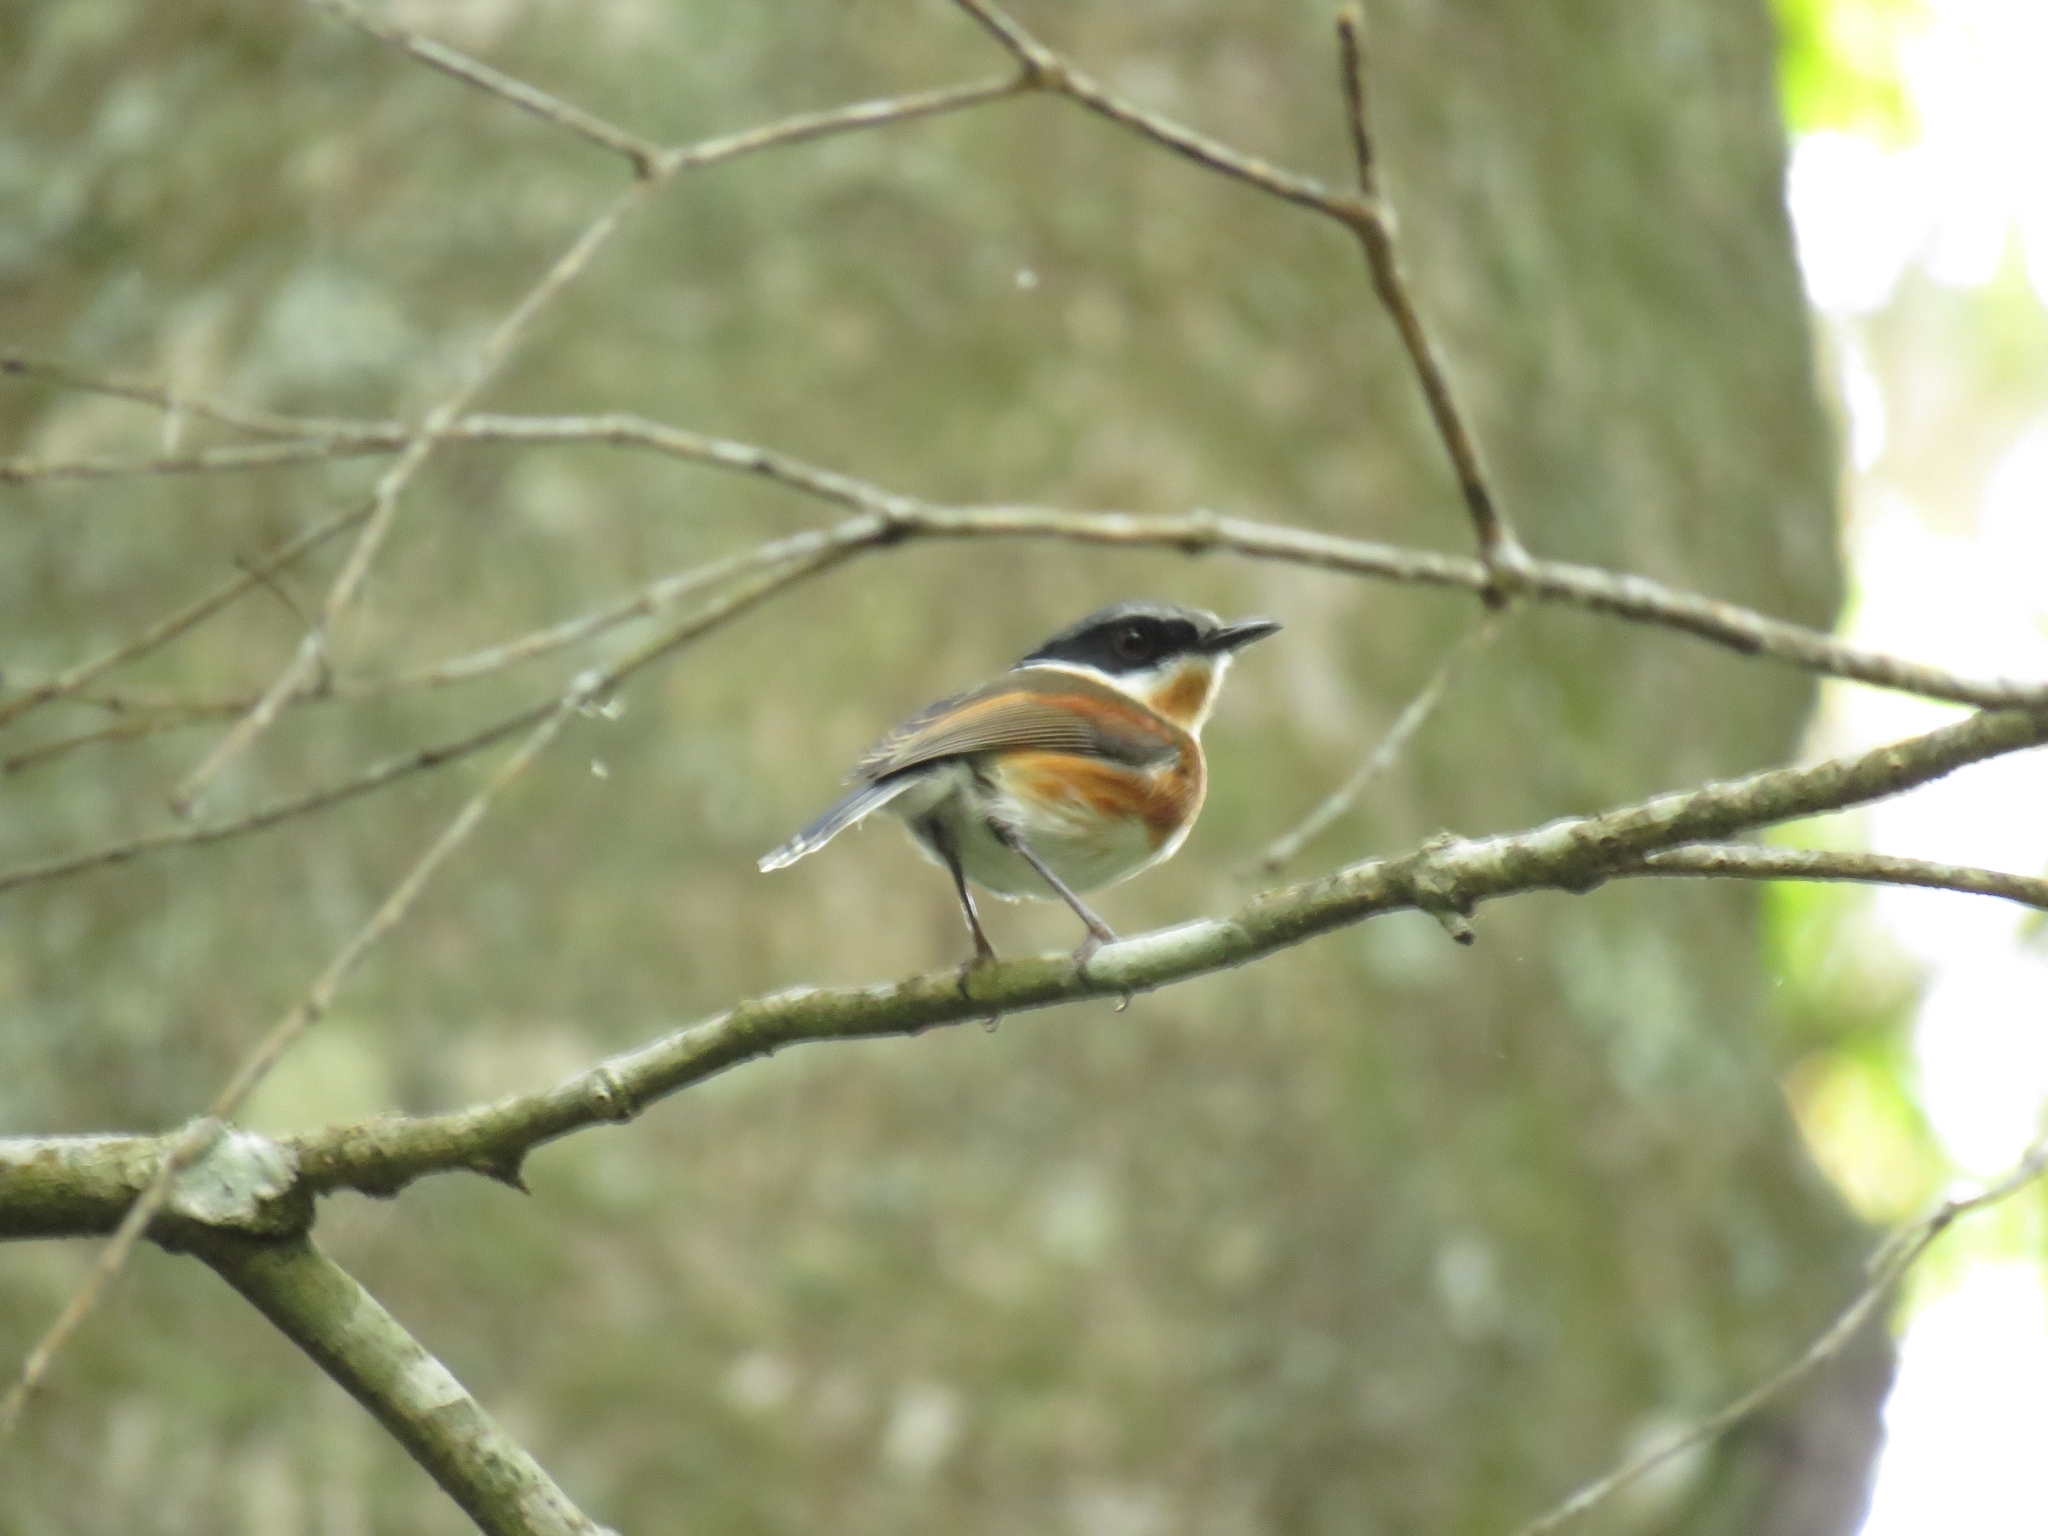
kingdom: Animalia
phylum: Chordata
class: Aves
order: Passeriformes
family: Platysteiridae
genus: Batis
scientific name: Batis capensis
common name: Cape batis
